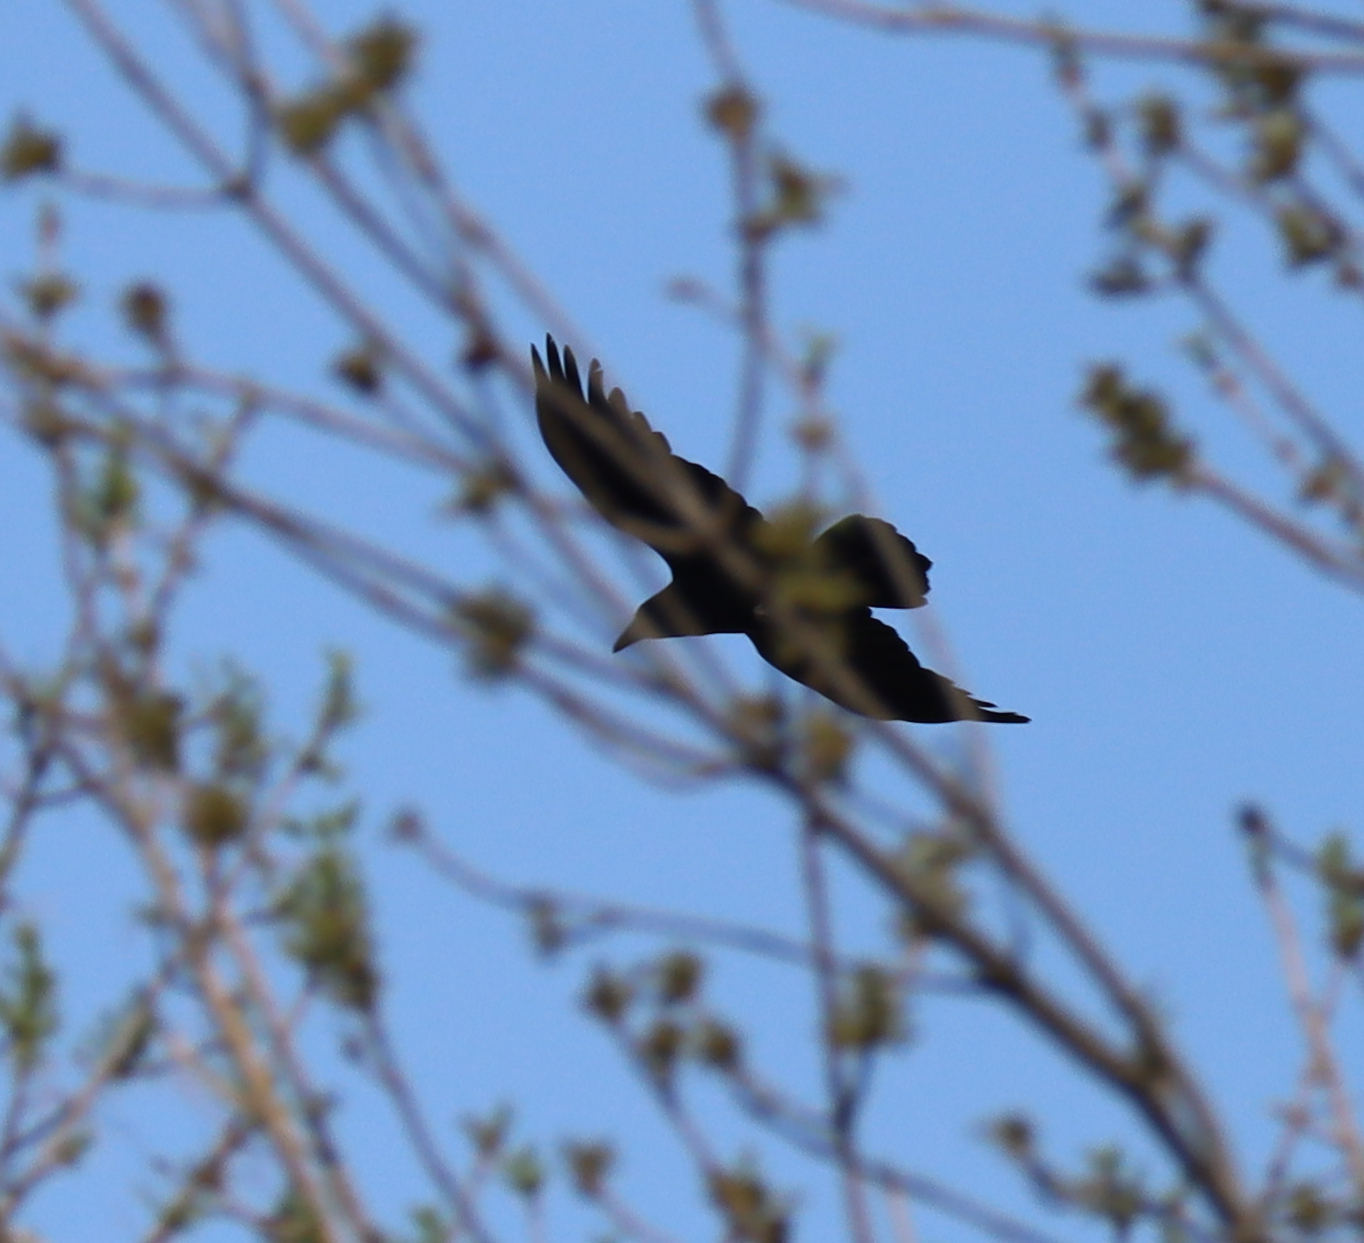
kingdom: Animalia
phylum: Chordata
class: Aves
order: Passeriformes
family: Corvidae
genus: Corvus
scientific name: Corvus corax
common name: Common raven
